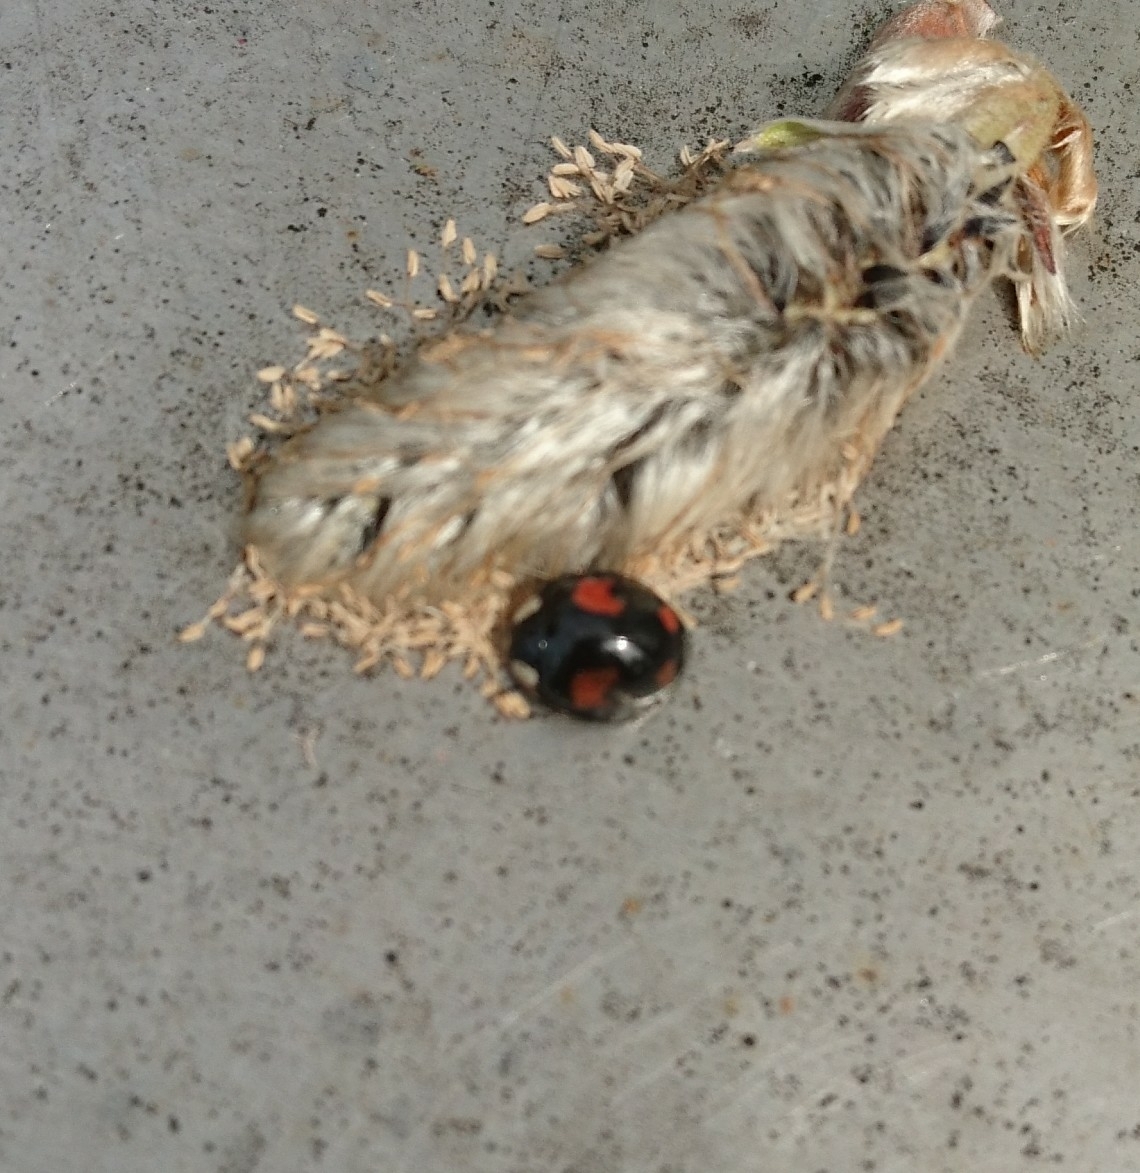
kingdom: Animalia
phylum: Arthropoda
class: Insecta
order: Coleoptera
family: Coccinellidae
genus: Harmonia
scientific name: Harmonia axyridis
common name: Harlequin ladybird
